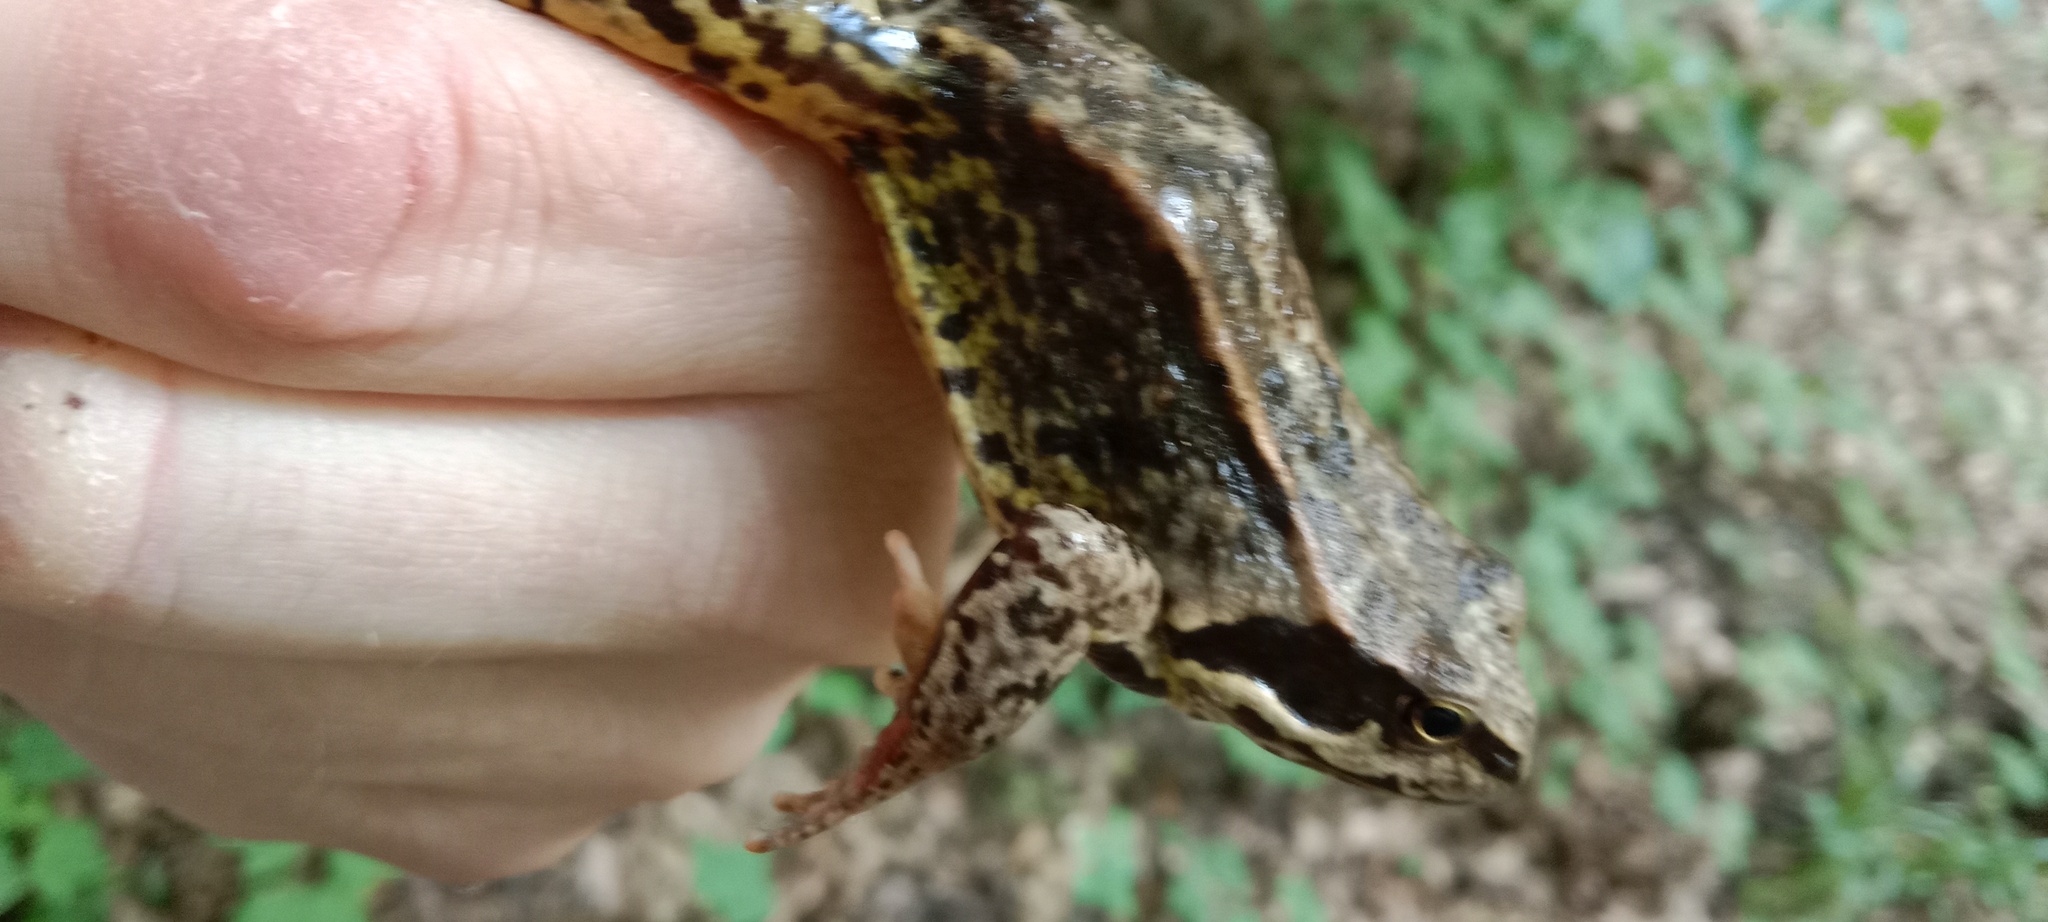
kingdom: Animalia
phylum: Chordata
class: Amphibia
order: Anura
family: Ranidae
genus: Rana
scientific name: Rana temporaria
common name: Common frog
